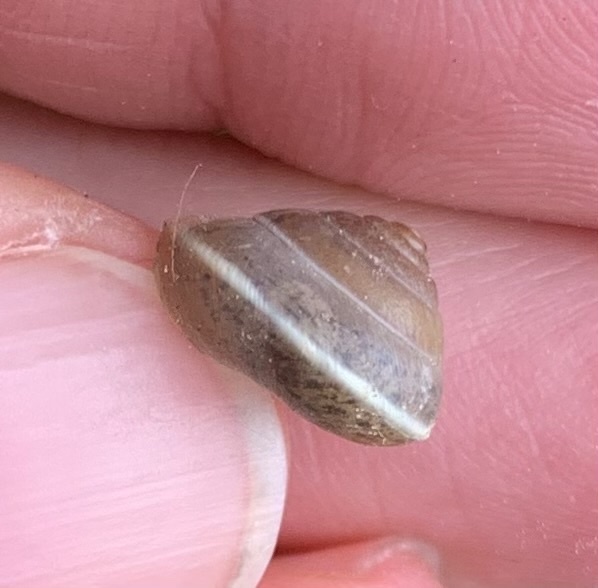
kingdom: Animalia
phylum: Mollusca
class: Gastropoda
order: Stylommatophora
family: Hygromiidae
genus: Hygromia
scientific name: Hygromia cinctella
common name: Girdled snail
